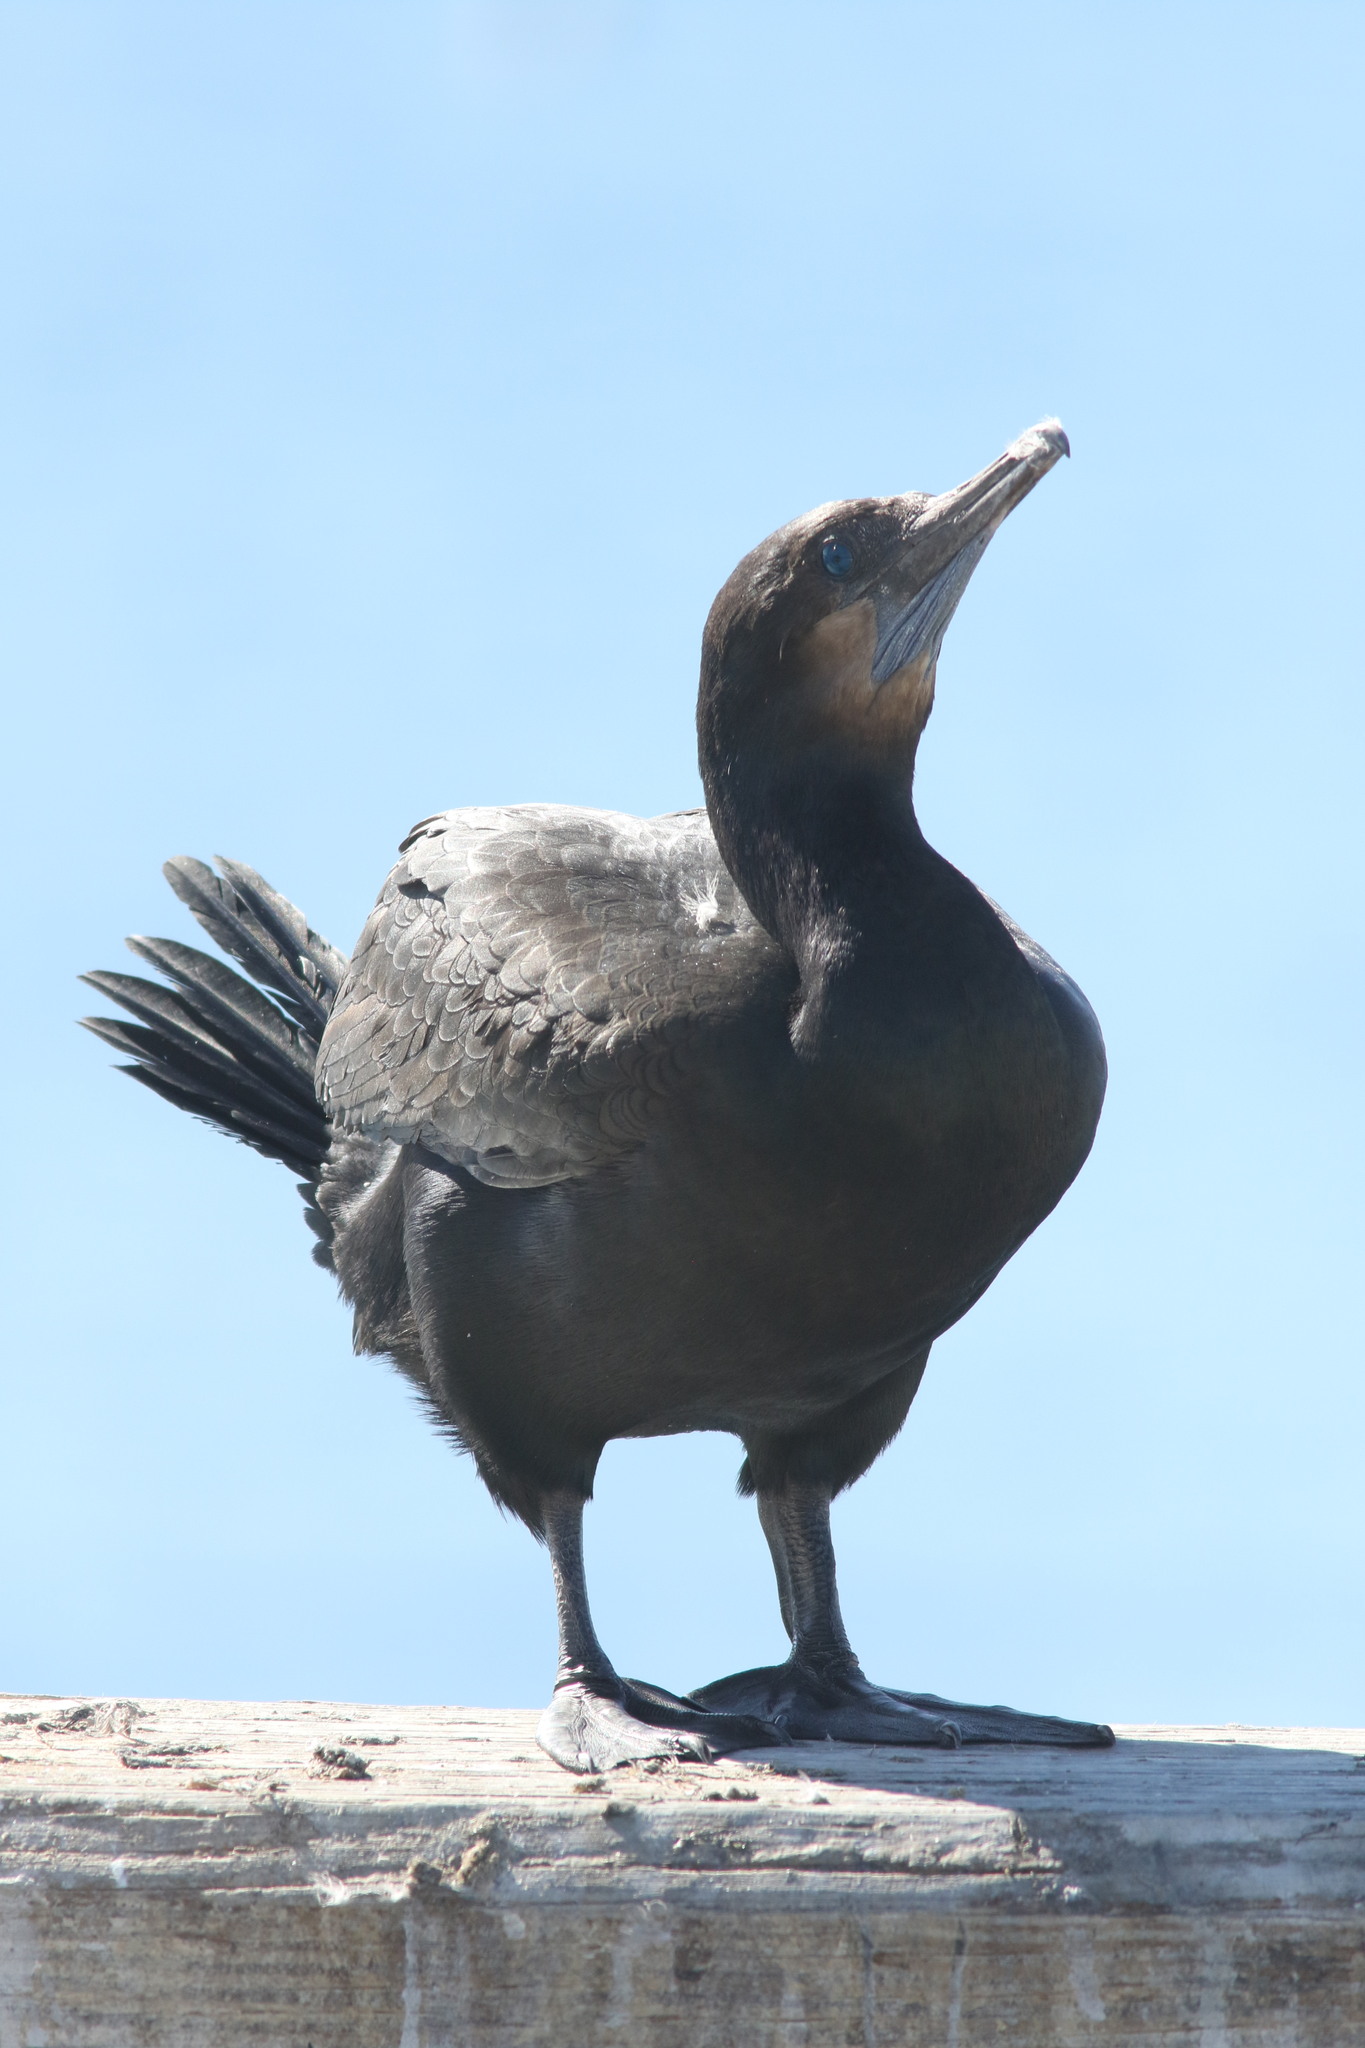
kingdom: Animalia
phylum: Chordata
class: Aves
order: Suliformes
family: Phalacrocoracidae
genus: Urile
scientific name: Urile penicillatus
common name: Brandt's cormorant
